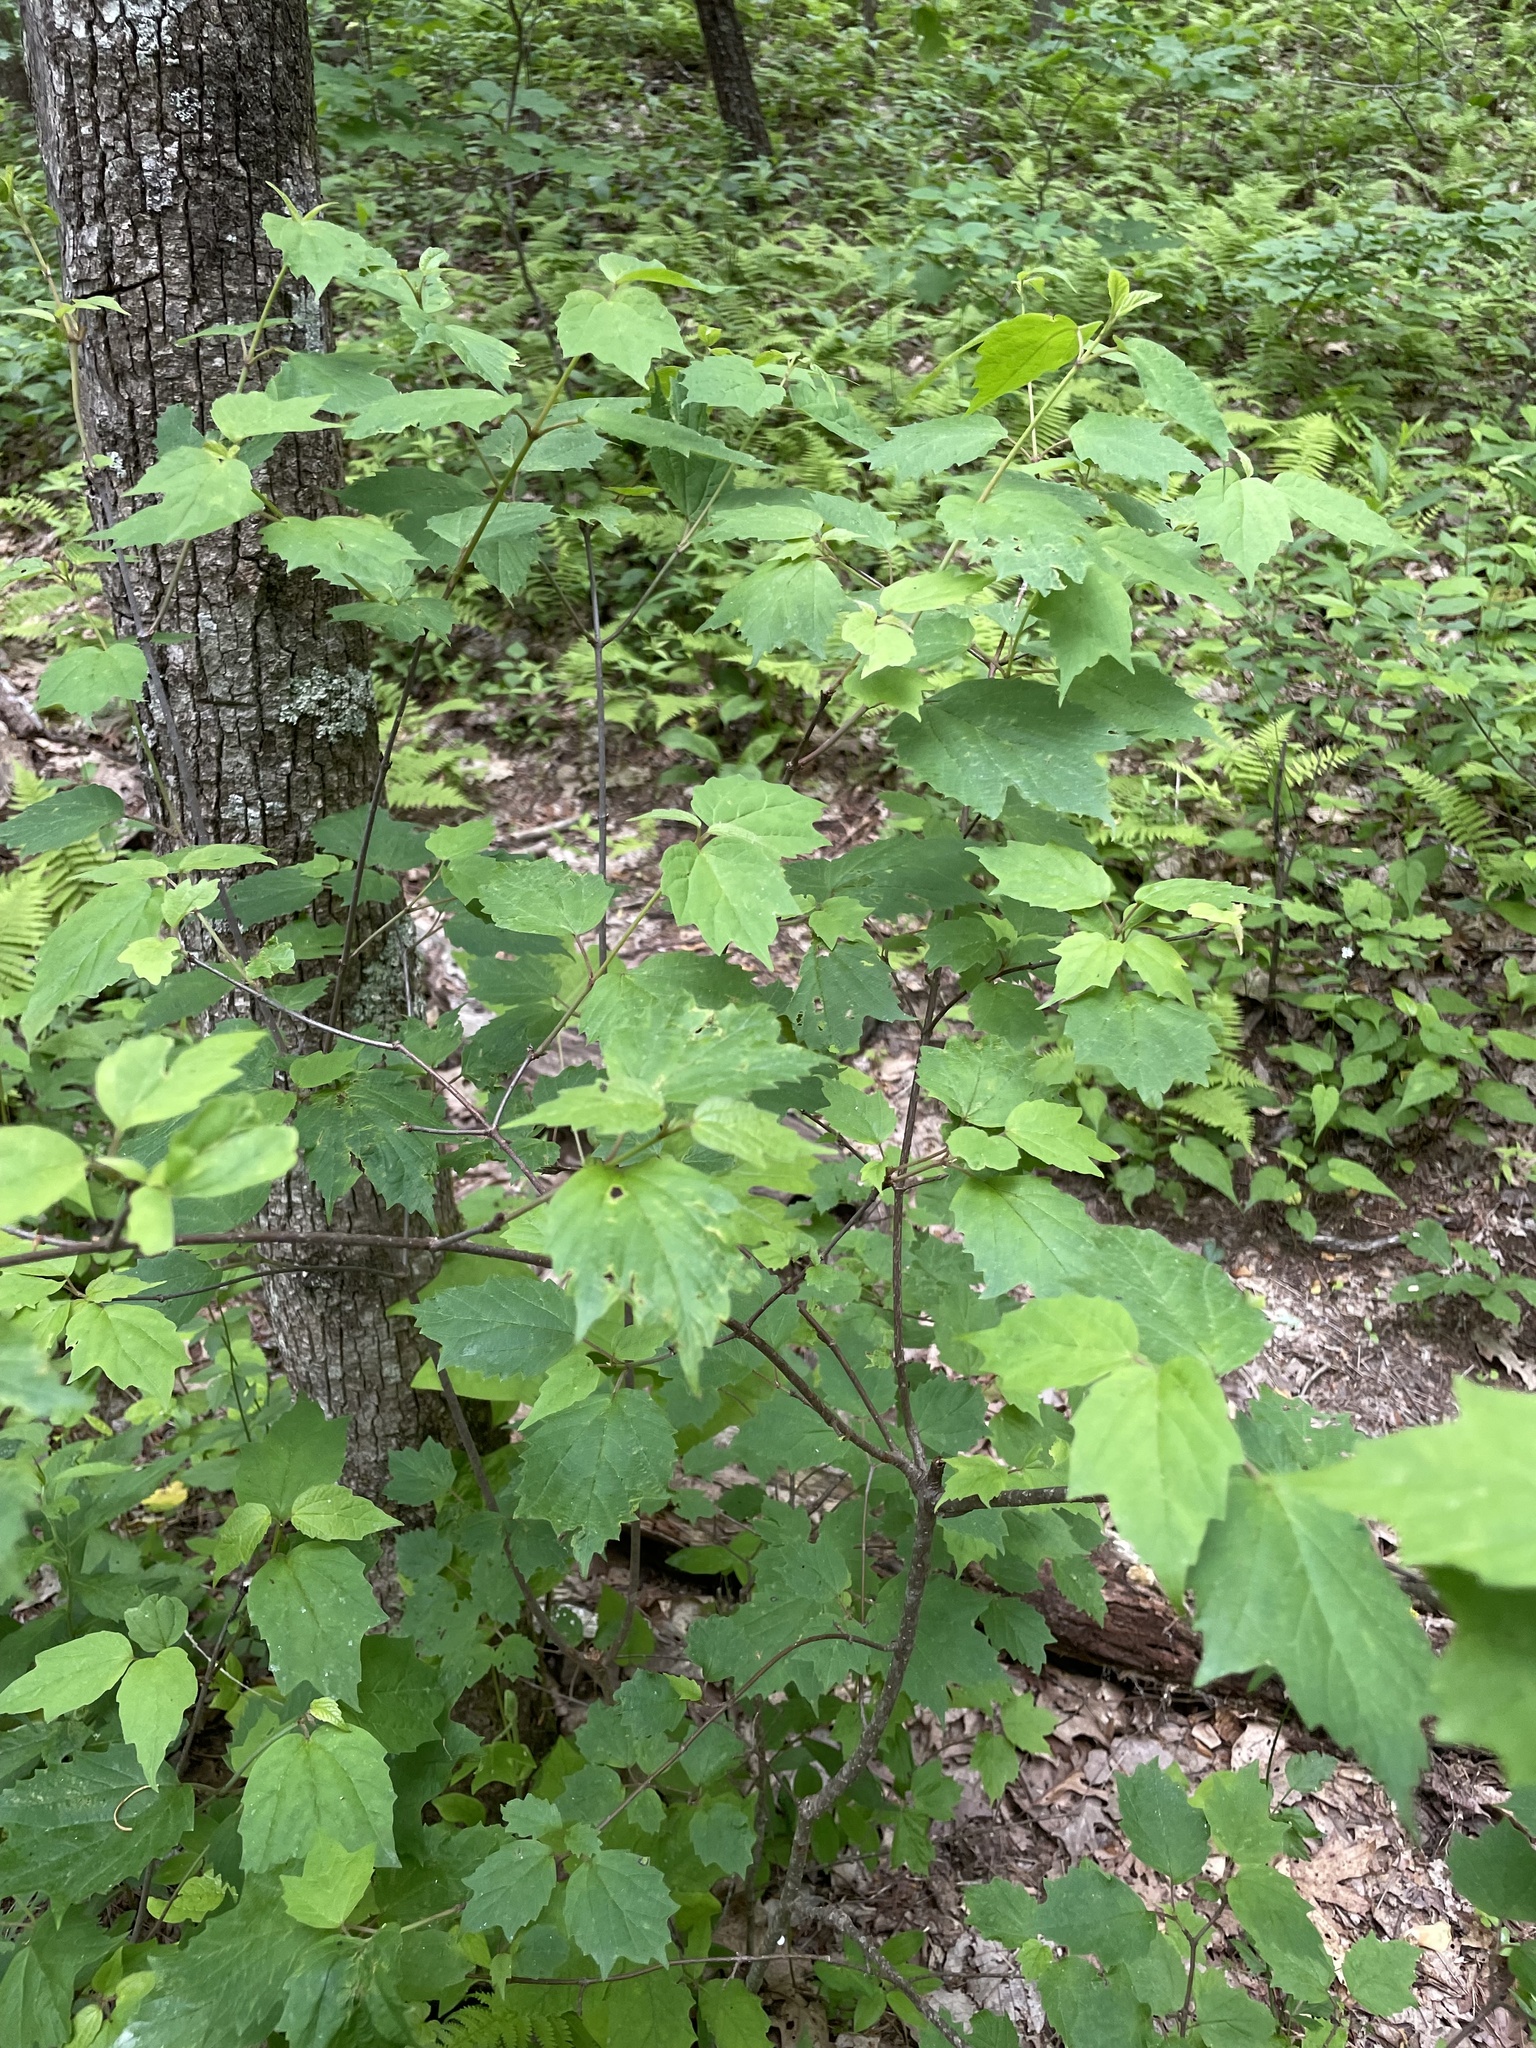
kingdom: Plantae
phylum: Tracheophyta
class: Magnoliopsida
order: Dipsacales
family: Viburnaceae
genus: Viburnum
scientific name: Viburnum acerifolium
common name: Dockmackie
